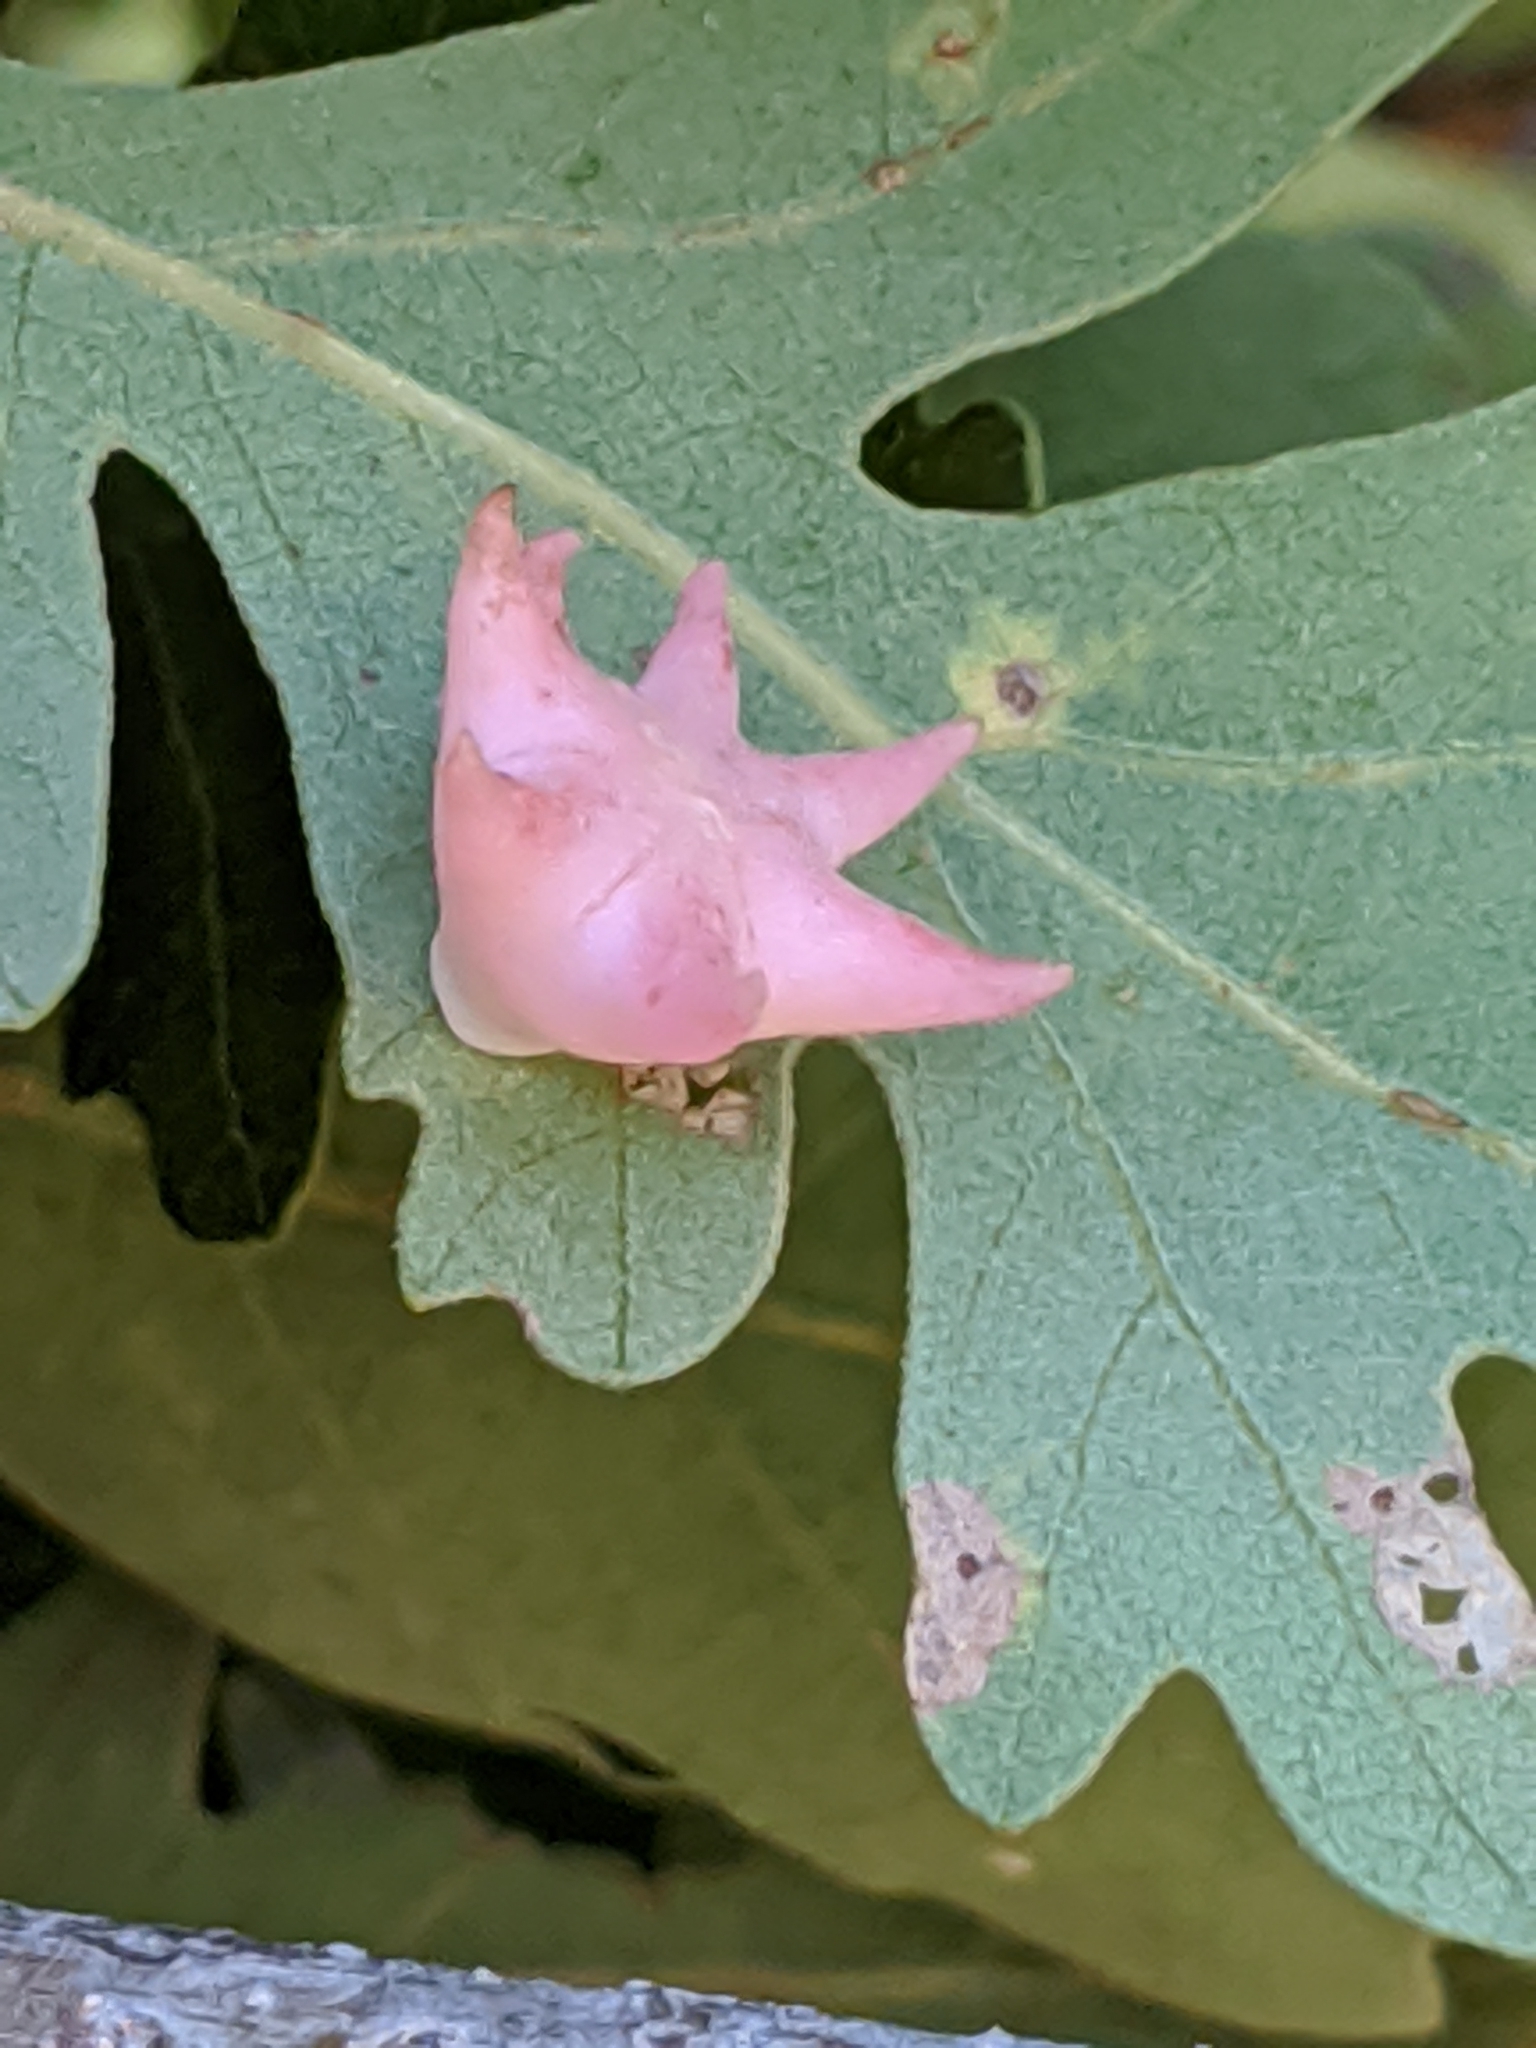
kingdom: Animalia
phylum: Arthropoda
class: Insecta
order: Hymenoptera
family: Cynipidae
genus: Cynips
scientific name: Cynips douglasi
